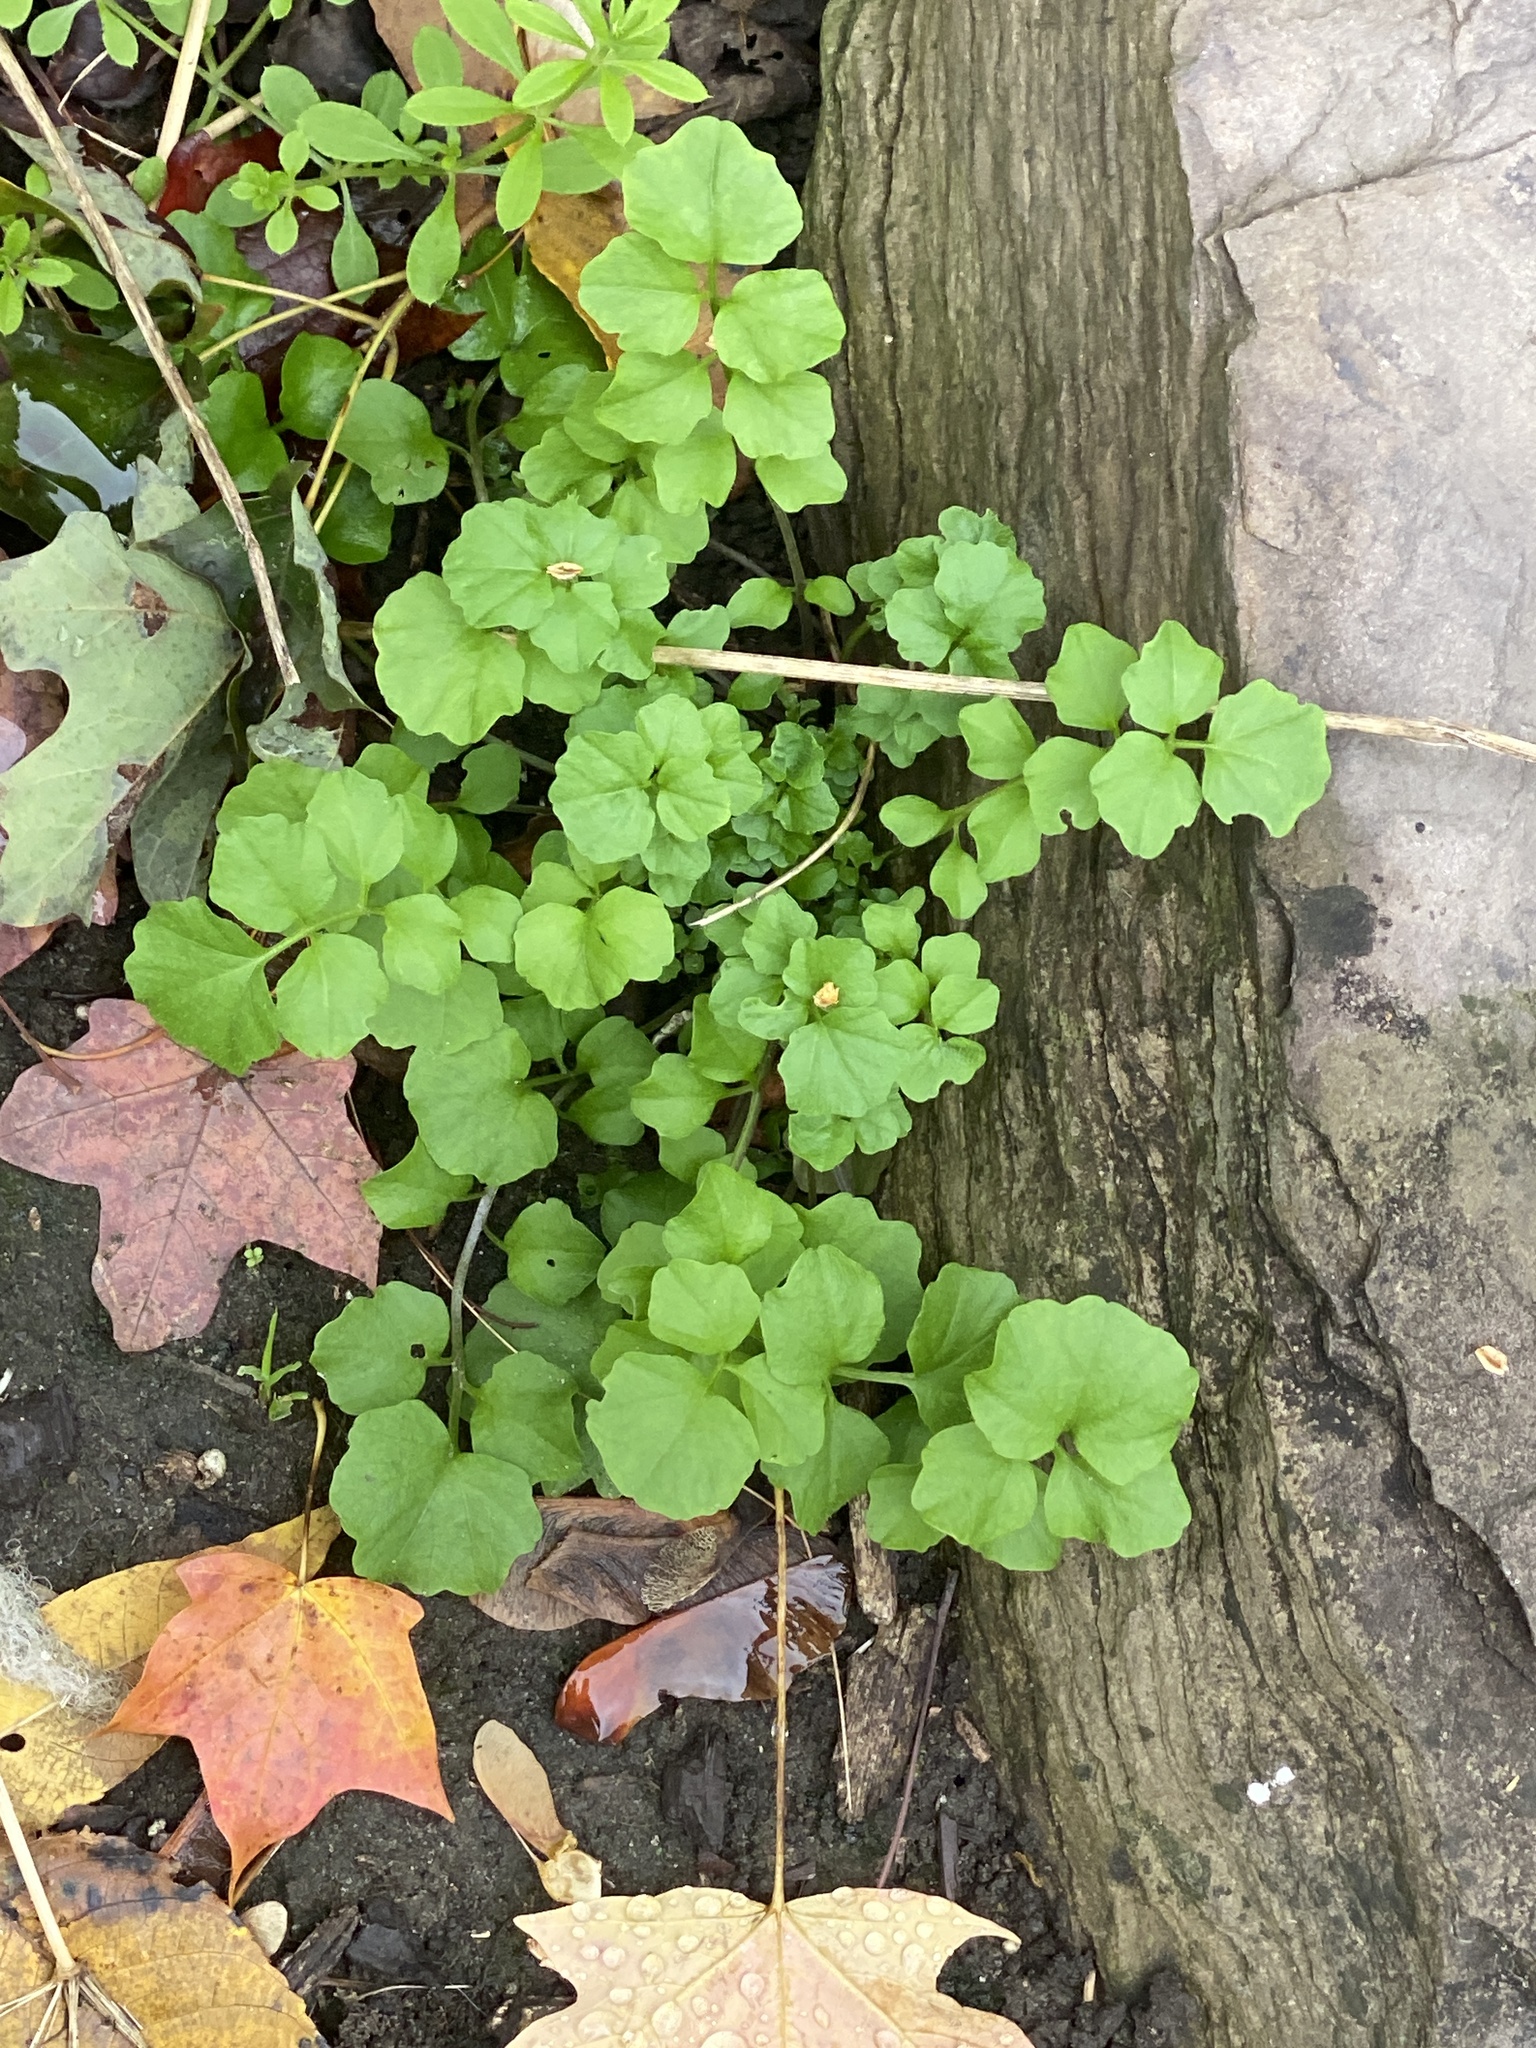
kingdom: Plantae
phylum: Tracheophyta
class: Magnoliopsida
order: Brassicales
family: Brassicaceae
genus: Cardamine
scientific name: Cardamine hirsuta
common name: Hairy bittercress
